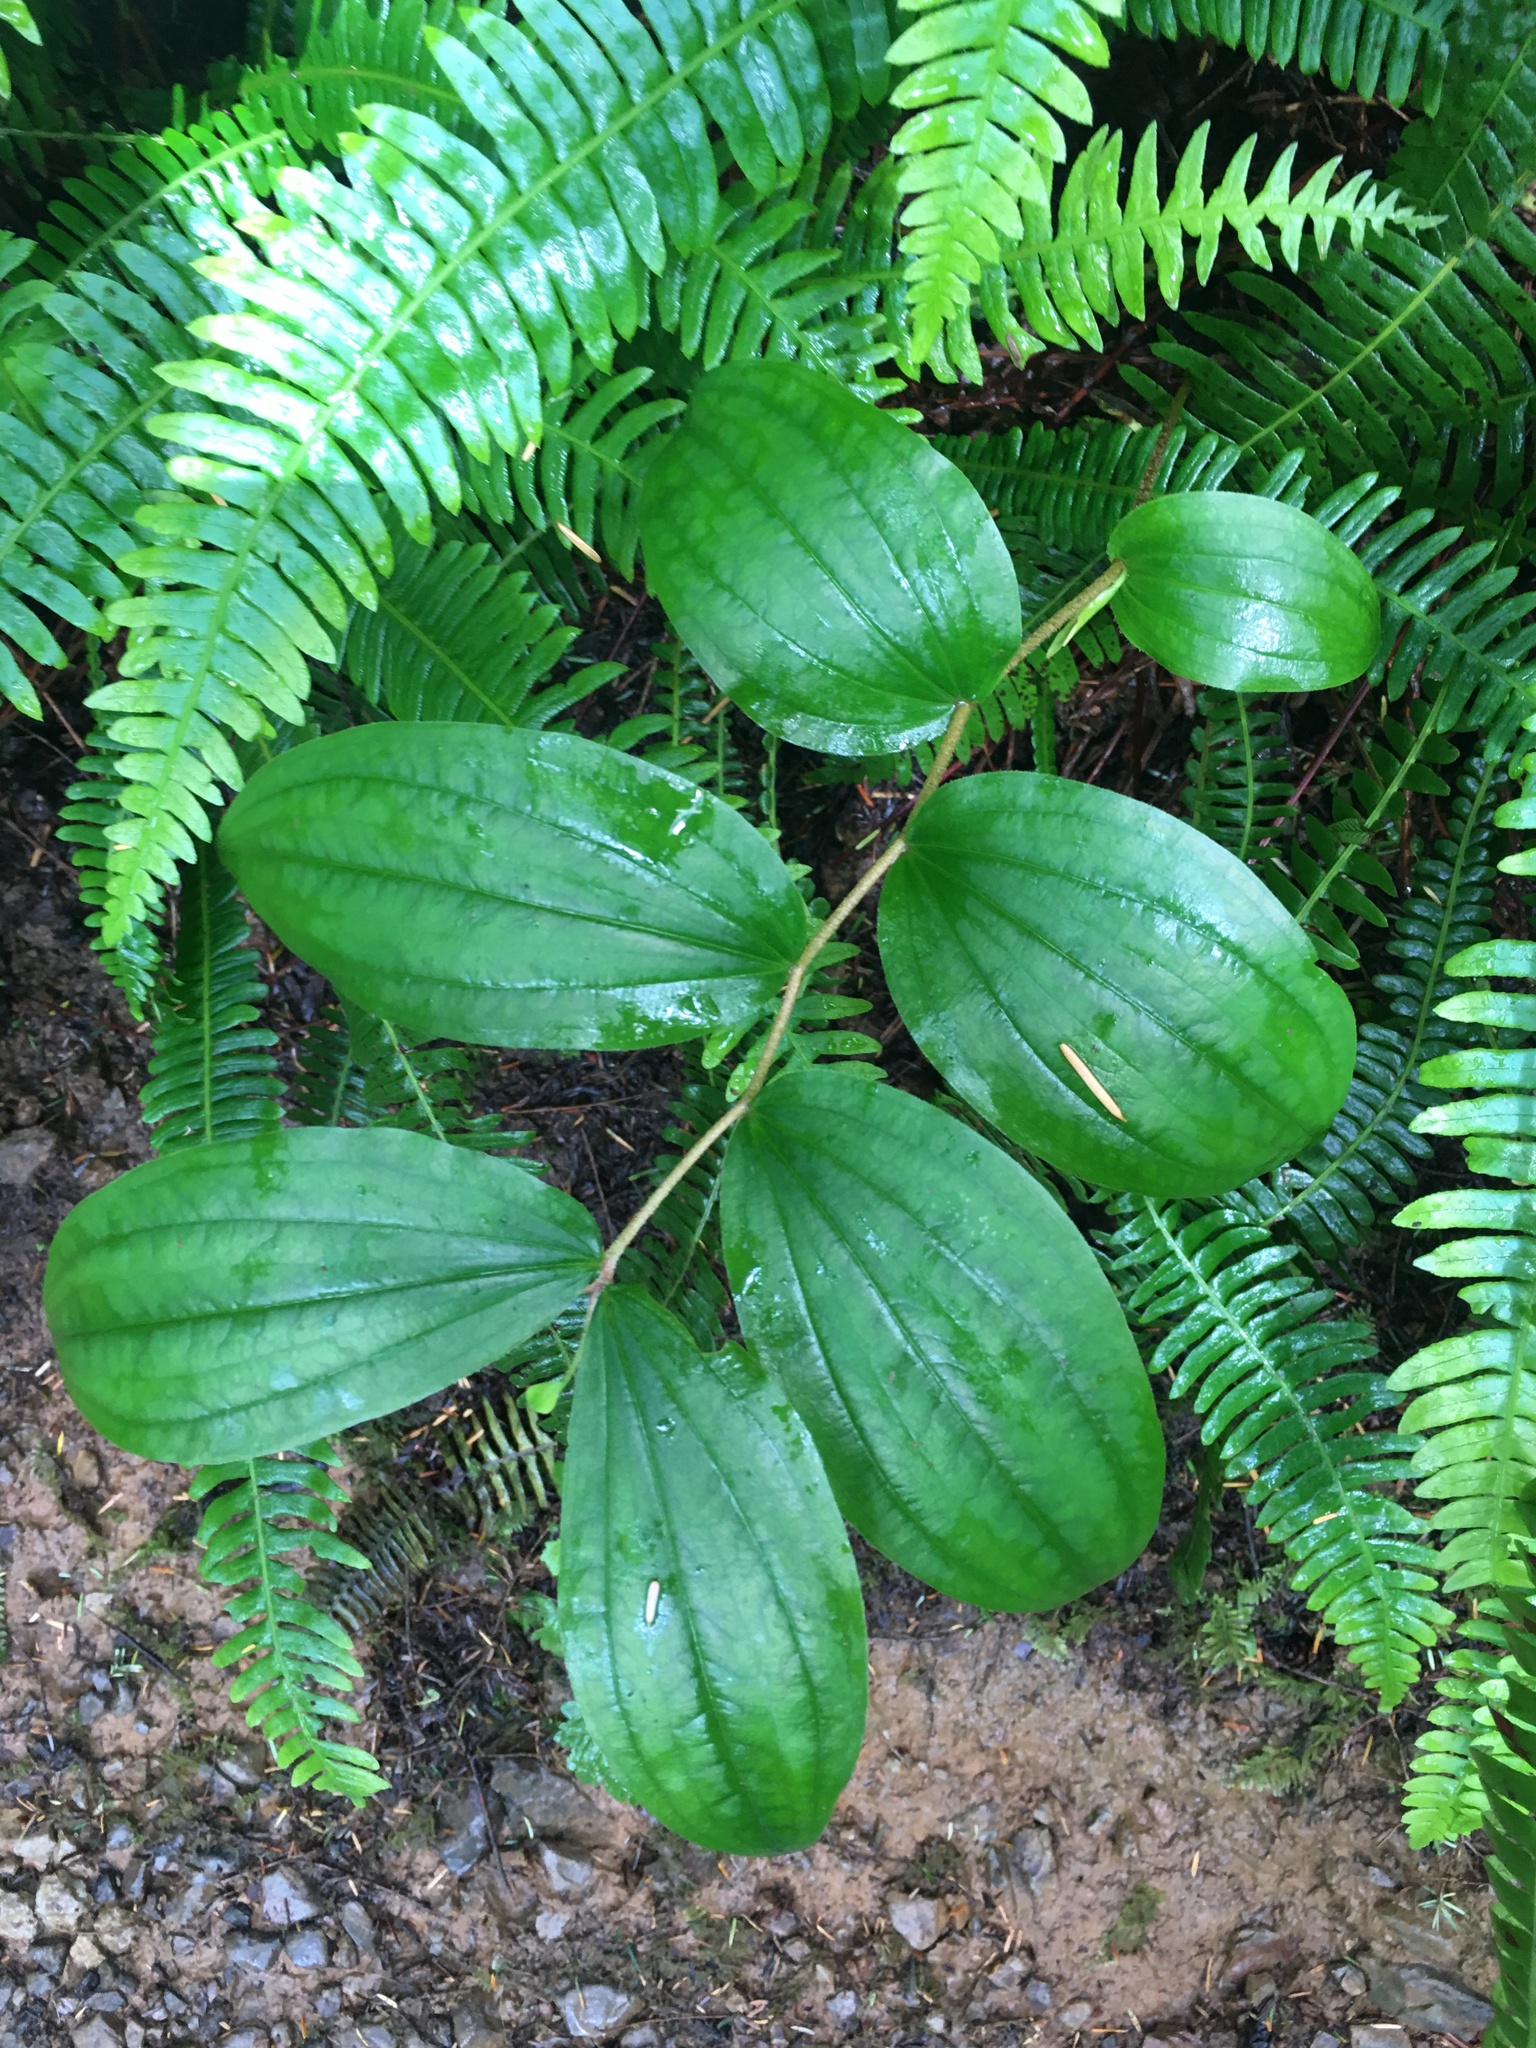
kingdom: Plantae
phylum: Tracheophyta
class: Liliopsida
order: Liliales
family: Liliaceae
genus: Prosartes
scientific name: Prosartes smithii
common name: Fairy-lantern
